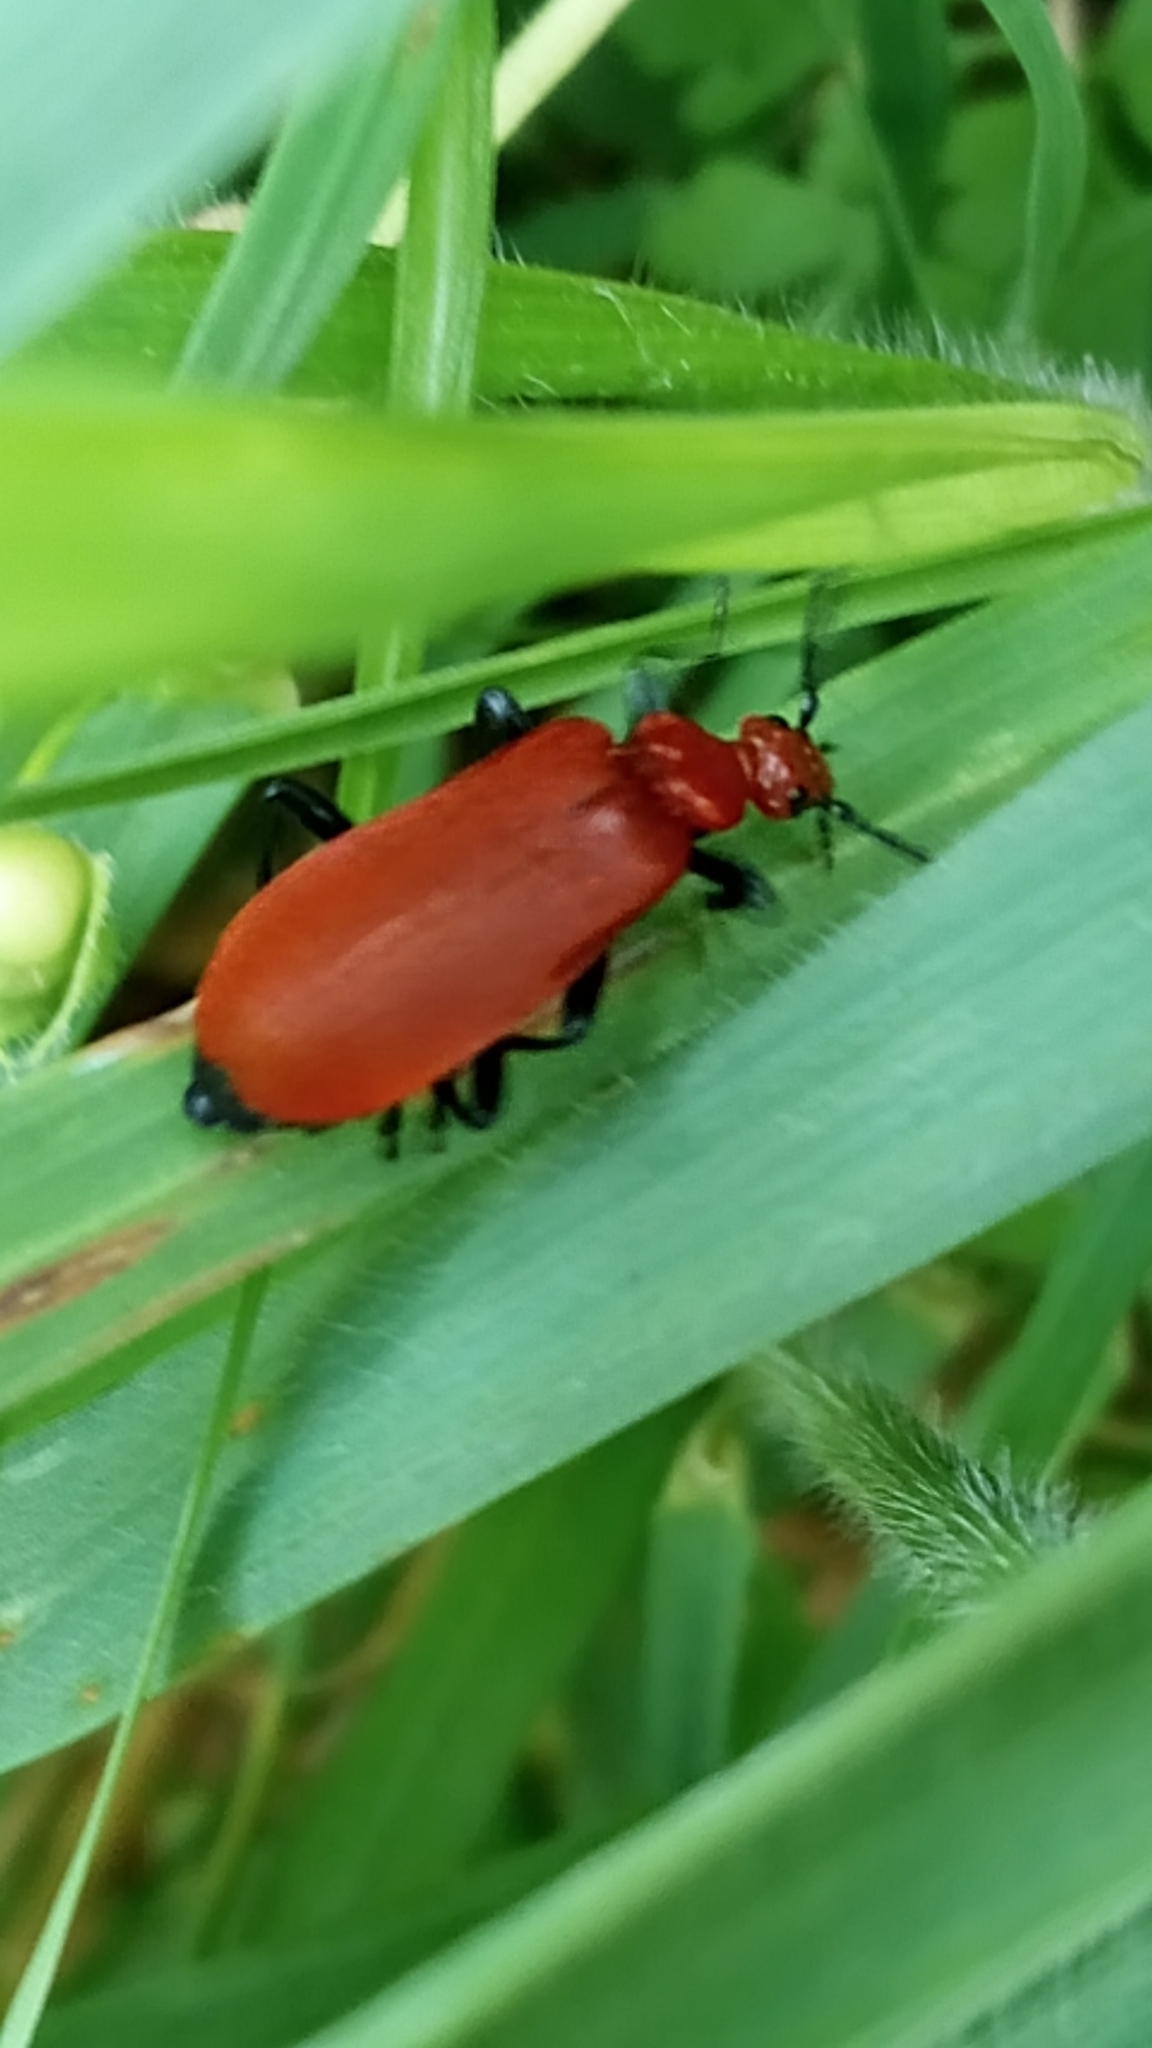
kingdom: Animalia
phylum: Arthropoda
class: Insecta
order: Coleoptera
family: Pyrochroidae
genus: Pyrochroa
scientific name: Pyrochroa serraticornis
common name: Red-headed cardinal beetle
